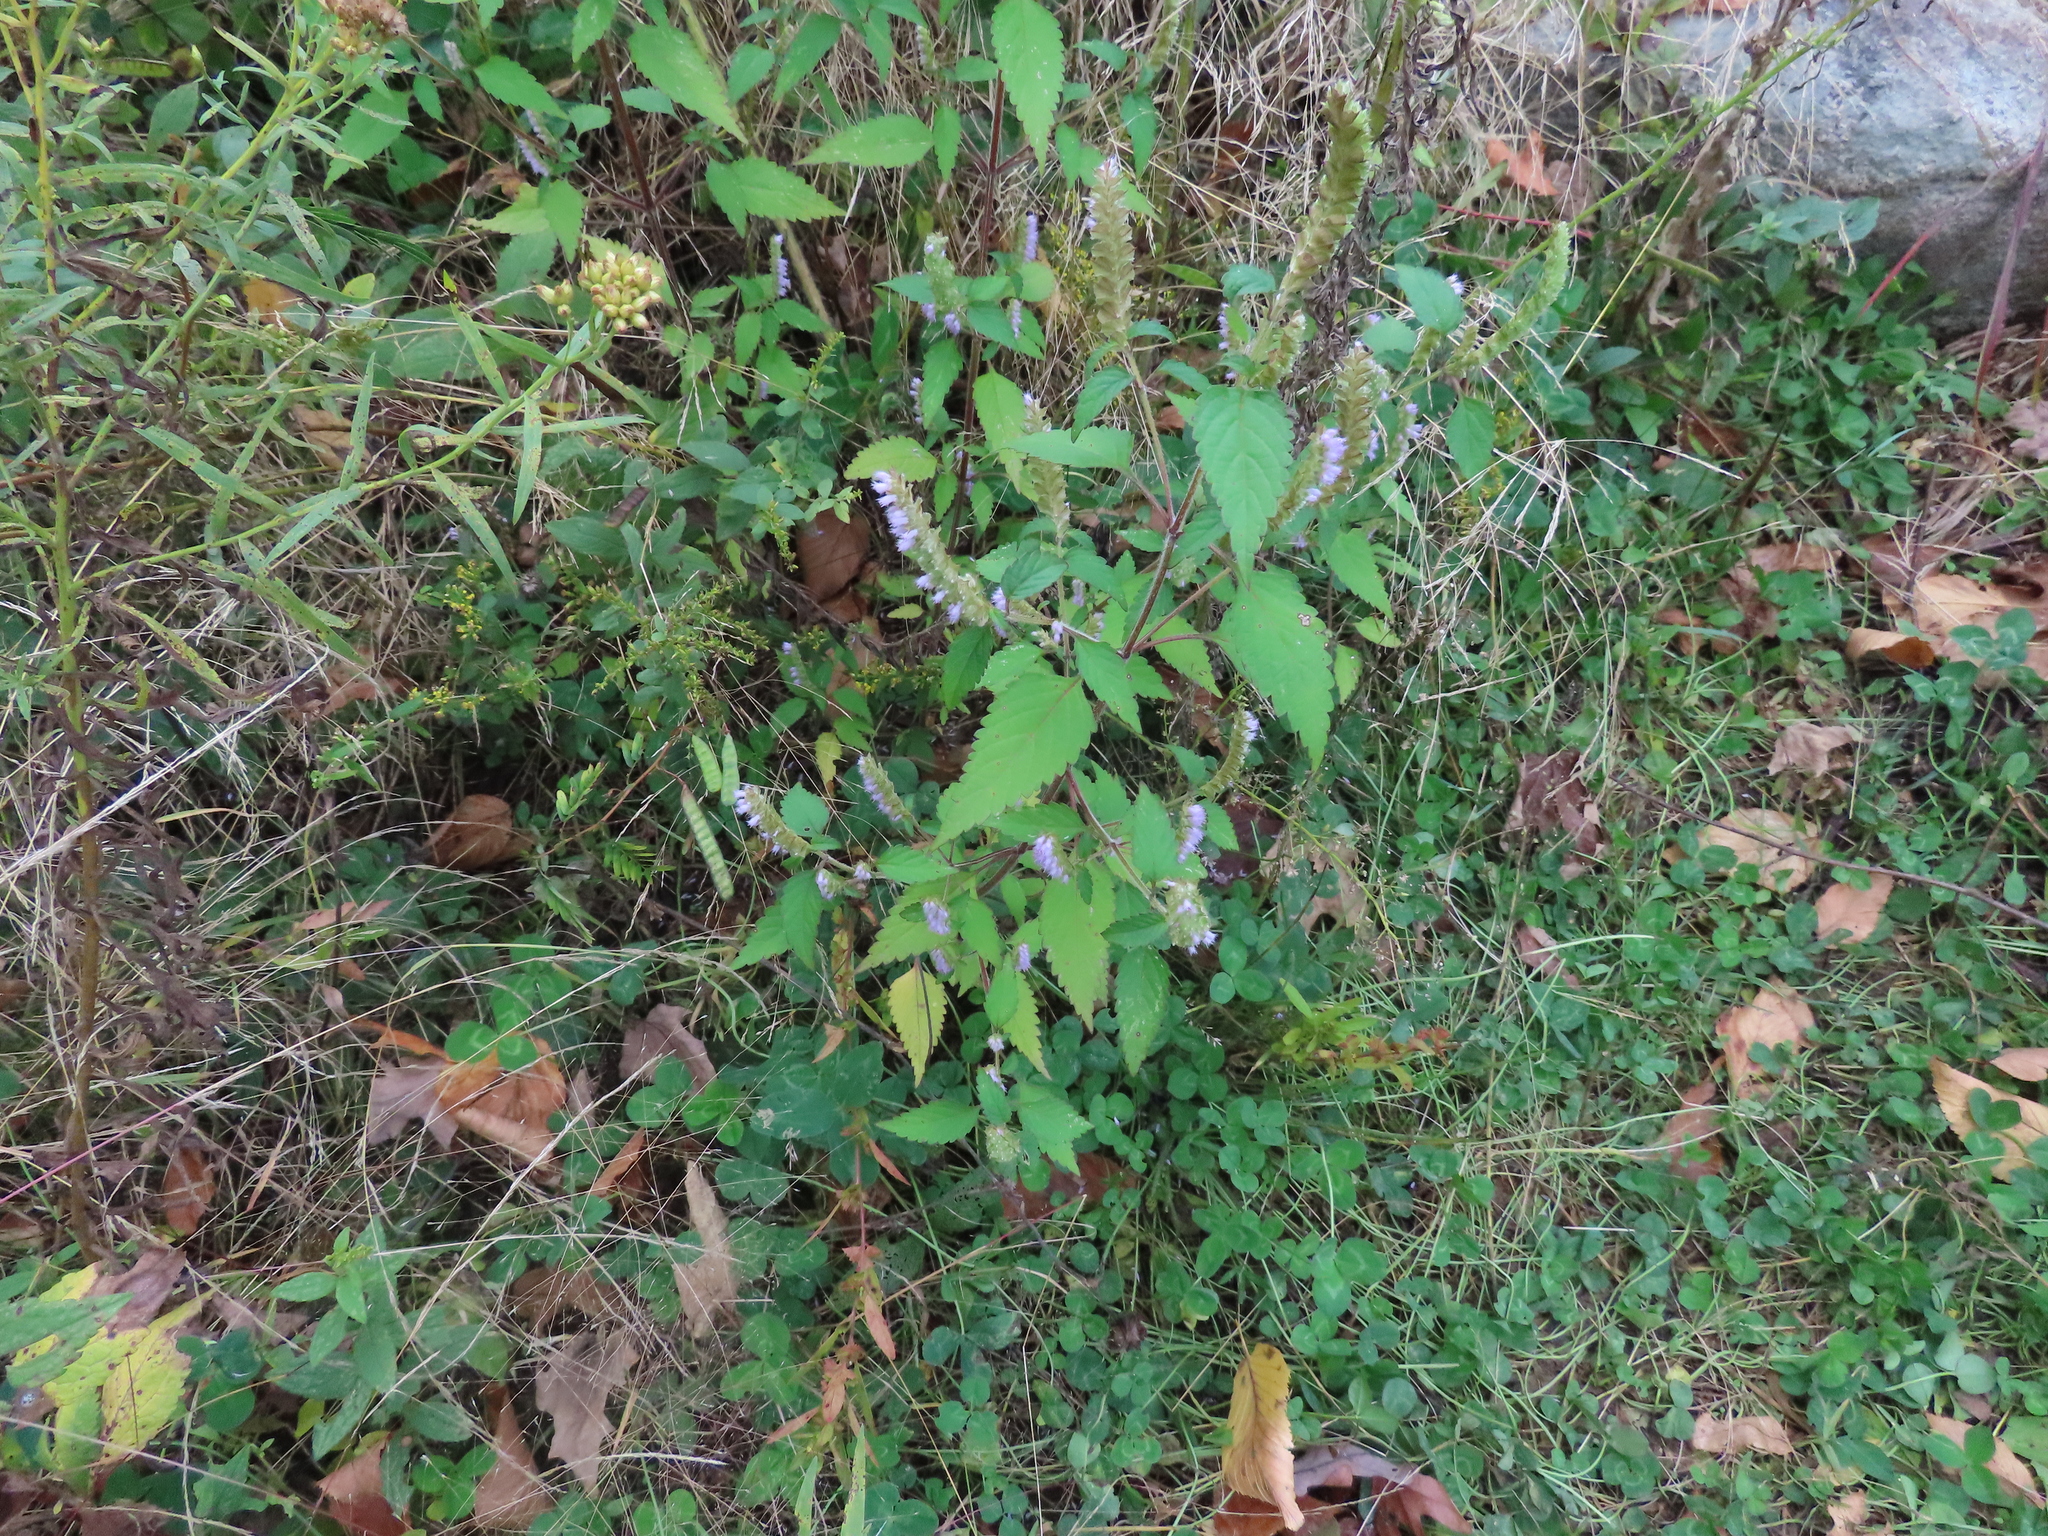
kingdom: Plantae
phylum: Tracheophyta
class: Magnoliopsida
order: Lamiales
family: Lamiaceae
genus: Elsholtzia
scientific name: Elsholtzia ciliata
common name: Ciliate elsholtzia
